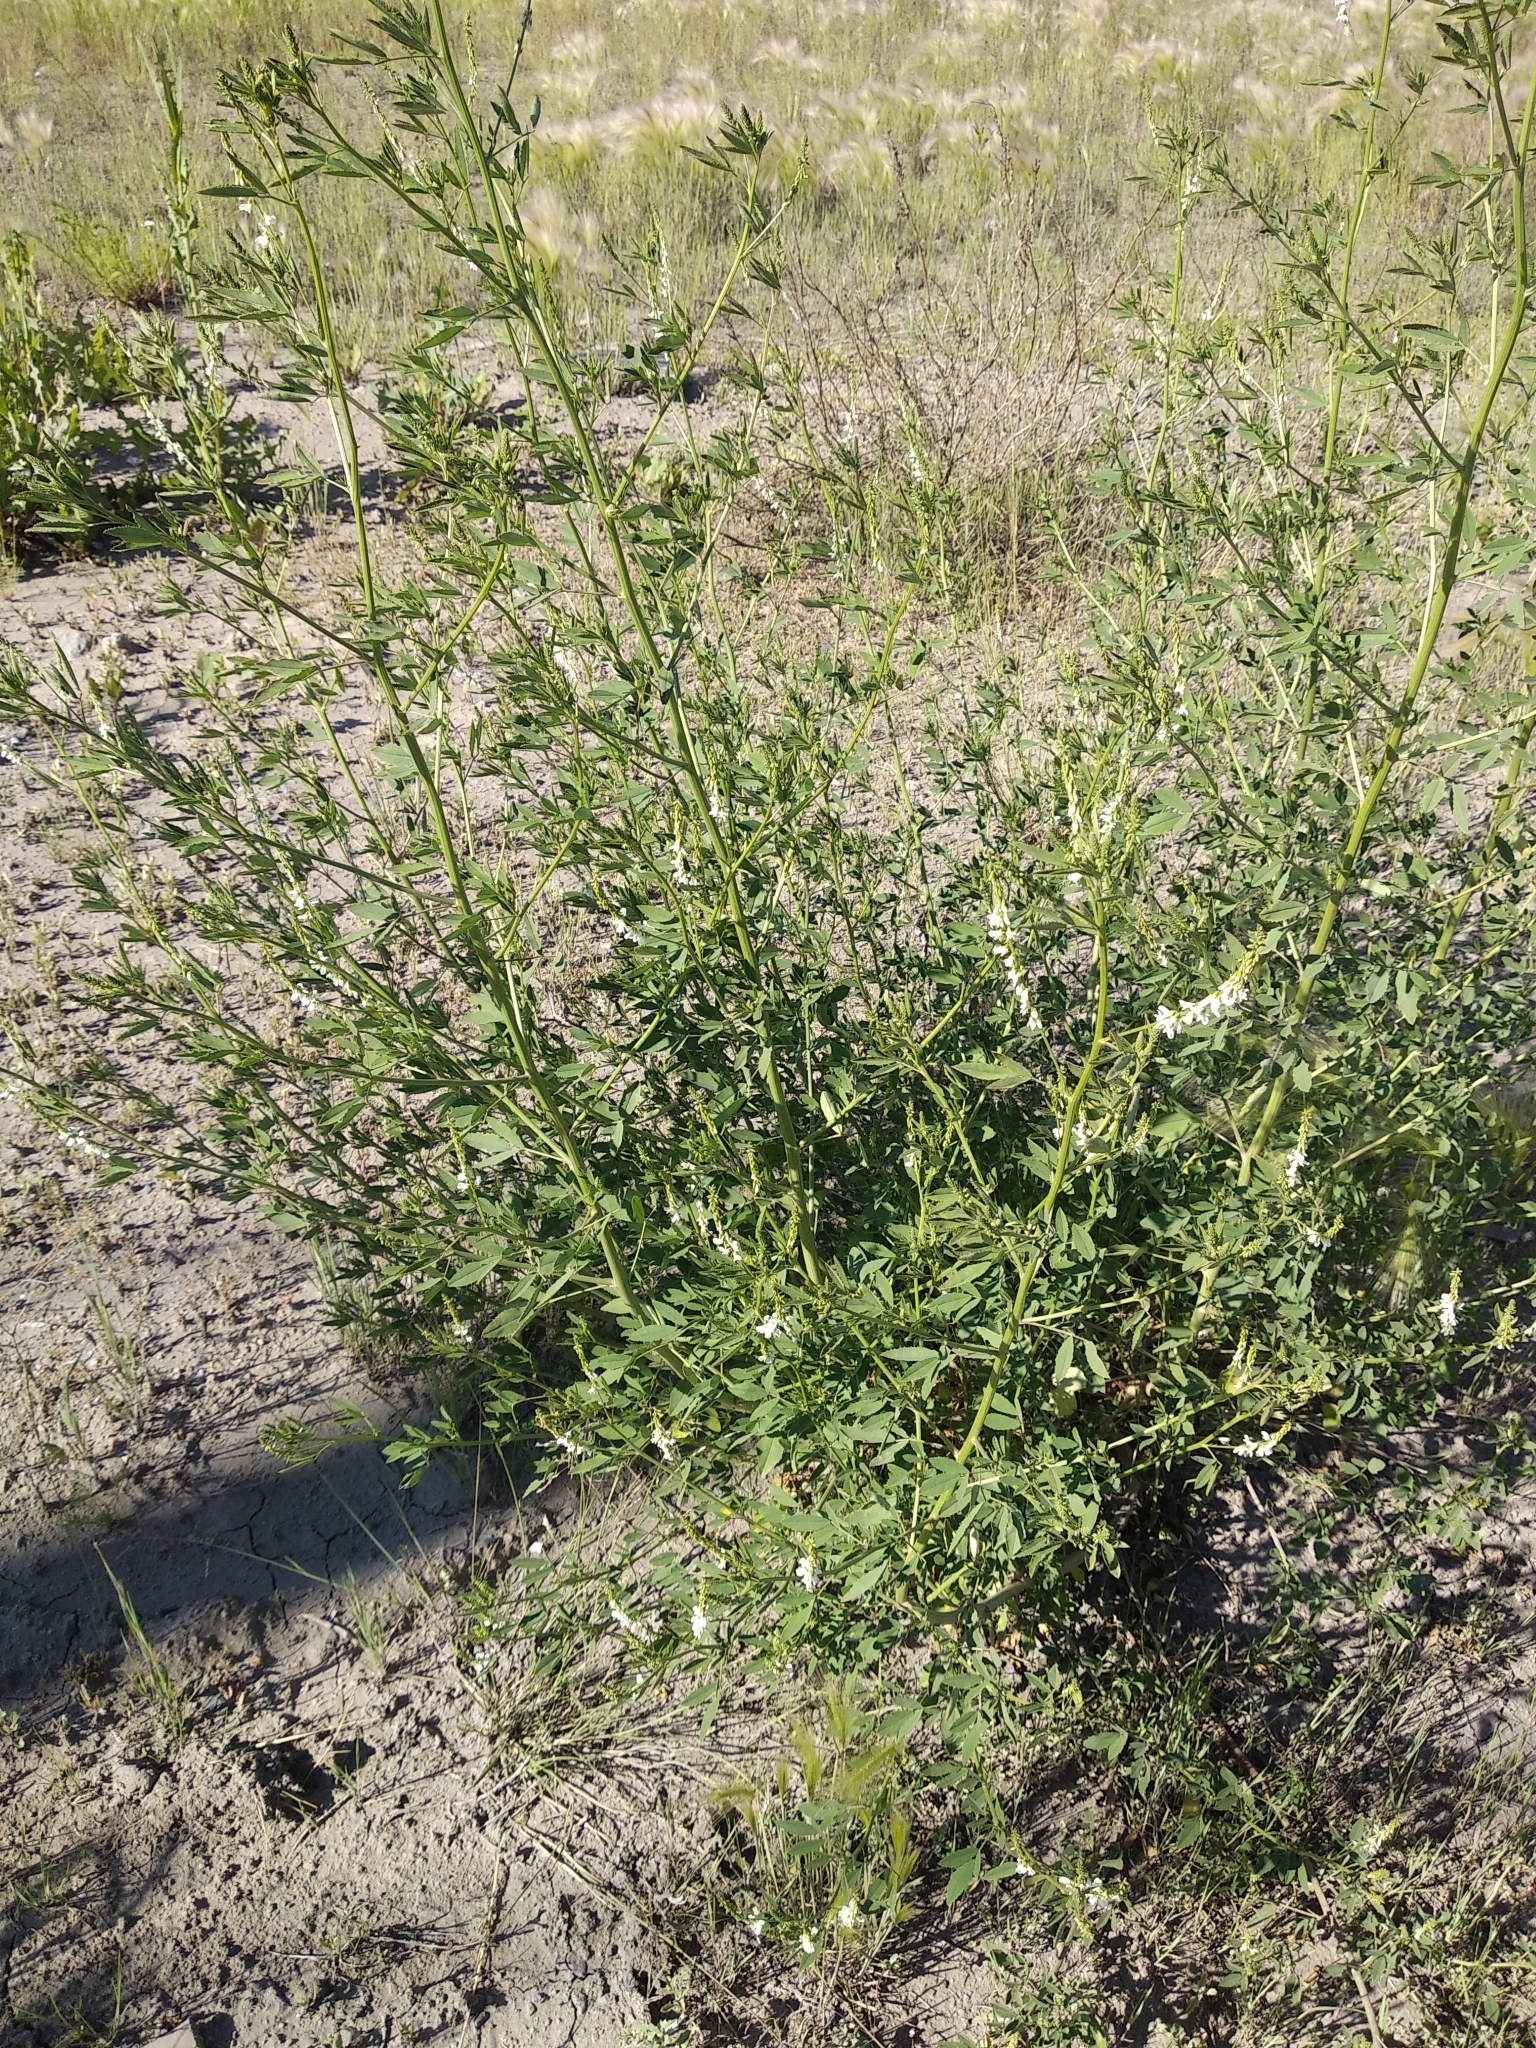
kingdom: Plantae
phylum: Tracheophyta
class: Magnoliopsida
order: Fabales
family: Fabaceae
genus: Melilotus
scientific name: Melilotus albus
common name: White melilot
